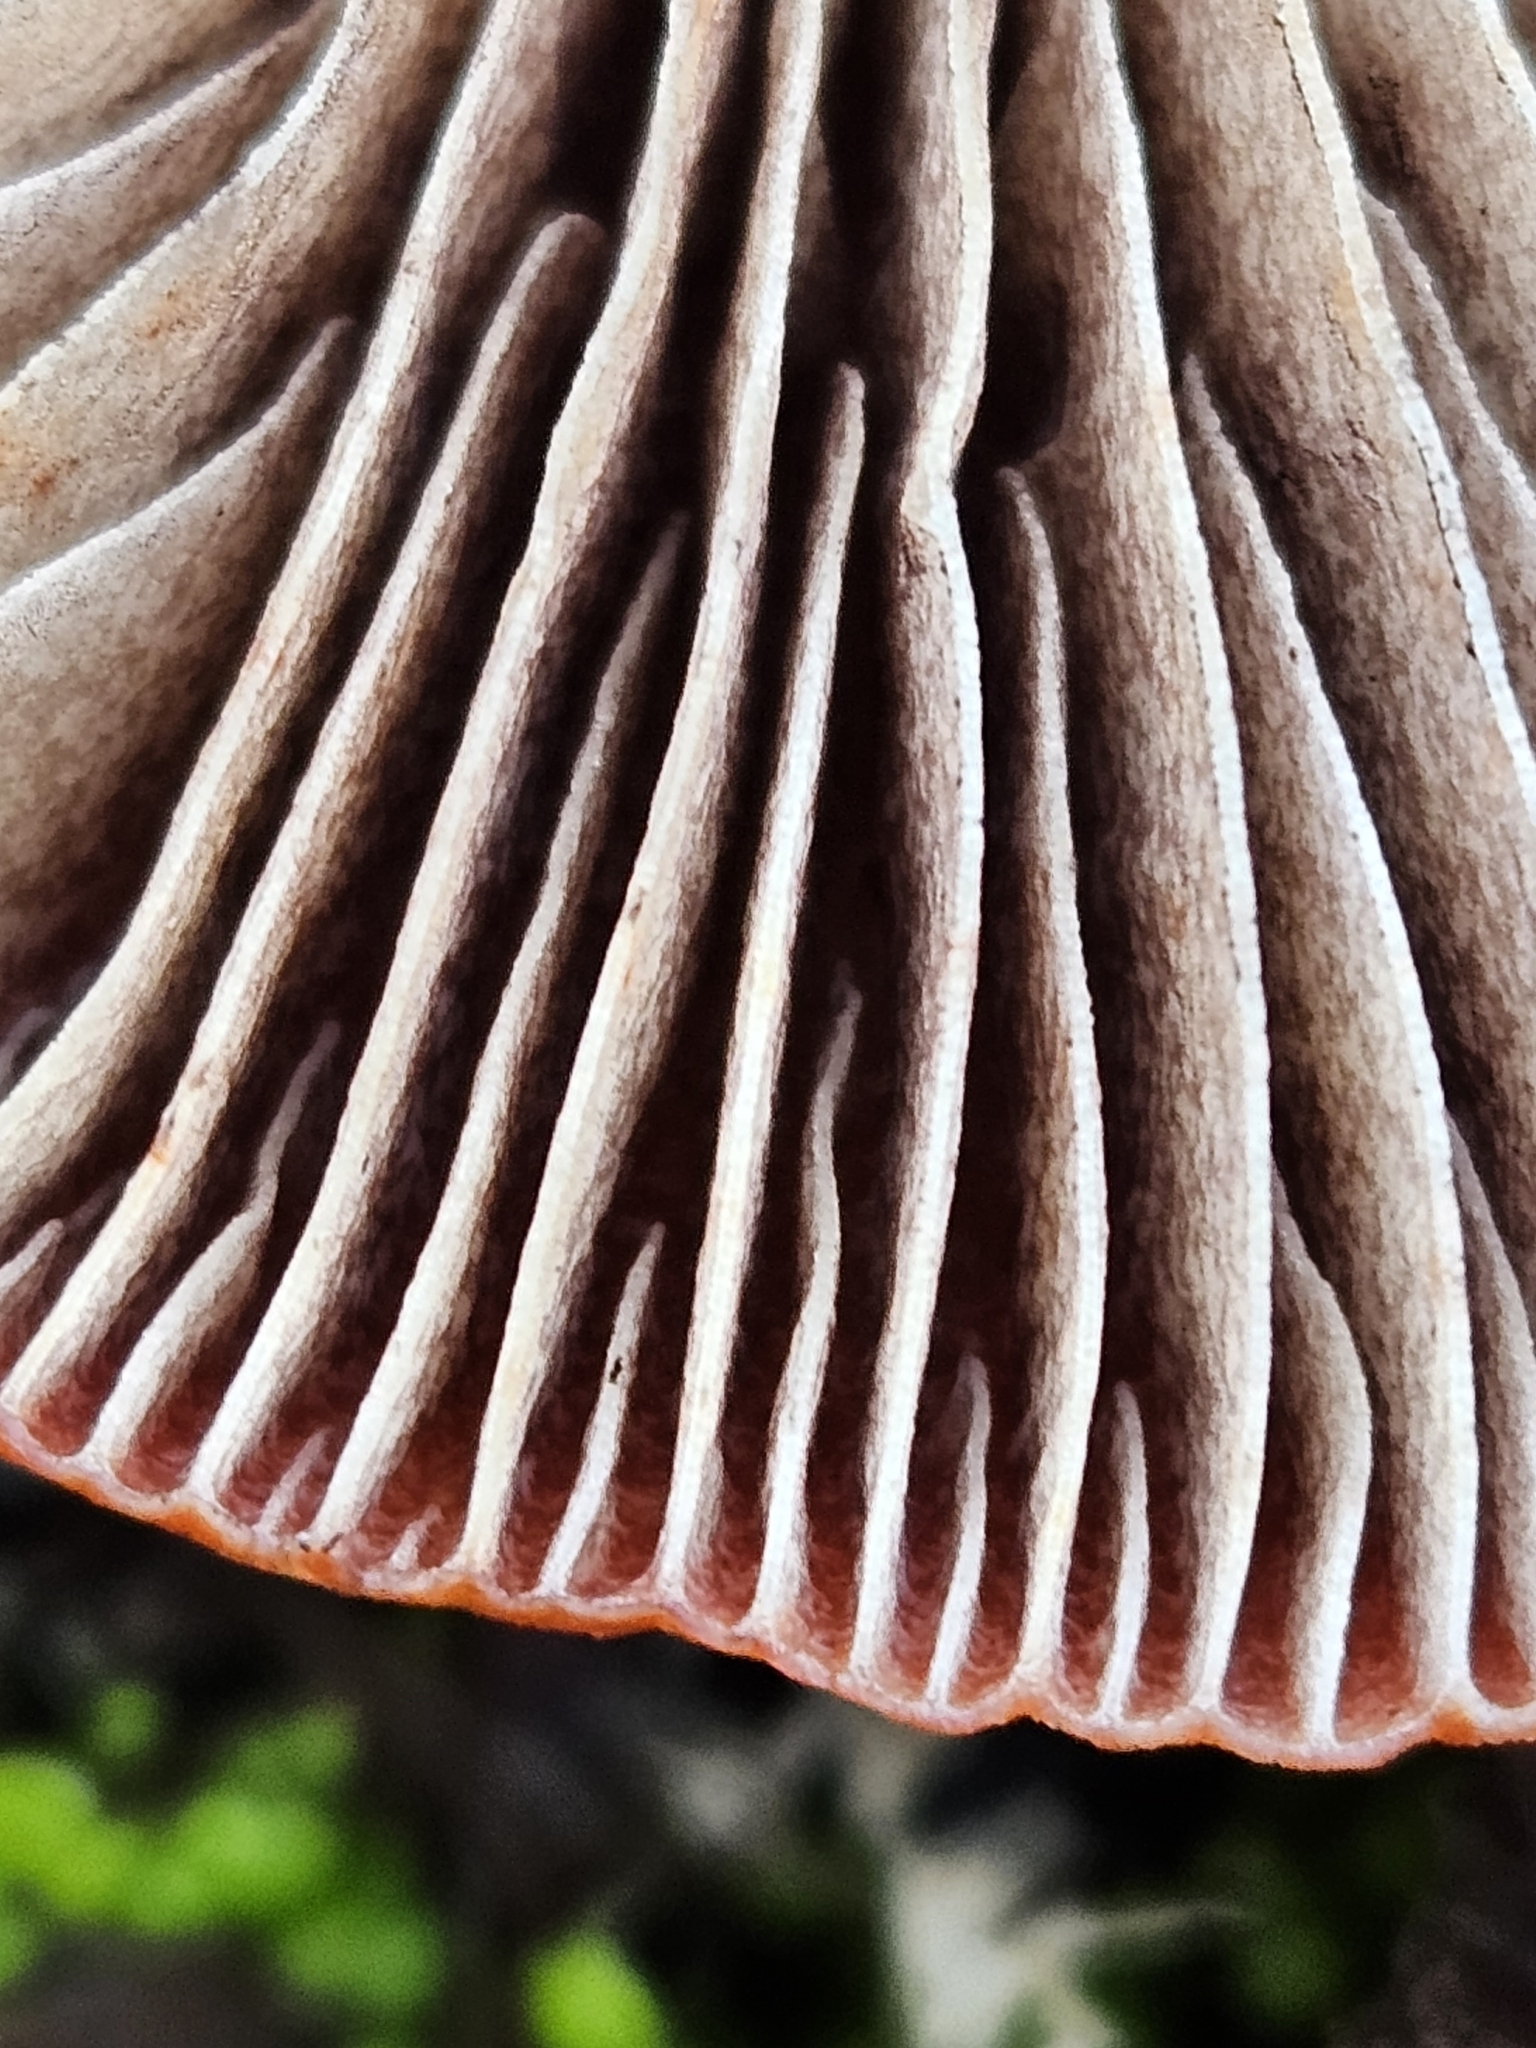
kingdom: Fungi
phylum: Basidiomycota
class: Agaricomycetes
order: Agaricales
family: Strophariaceae
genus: Leratiomyces
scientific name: Leratiomyces ceres
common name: Redlead roundhead
